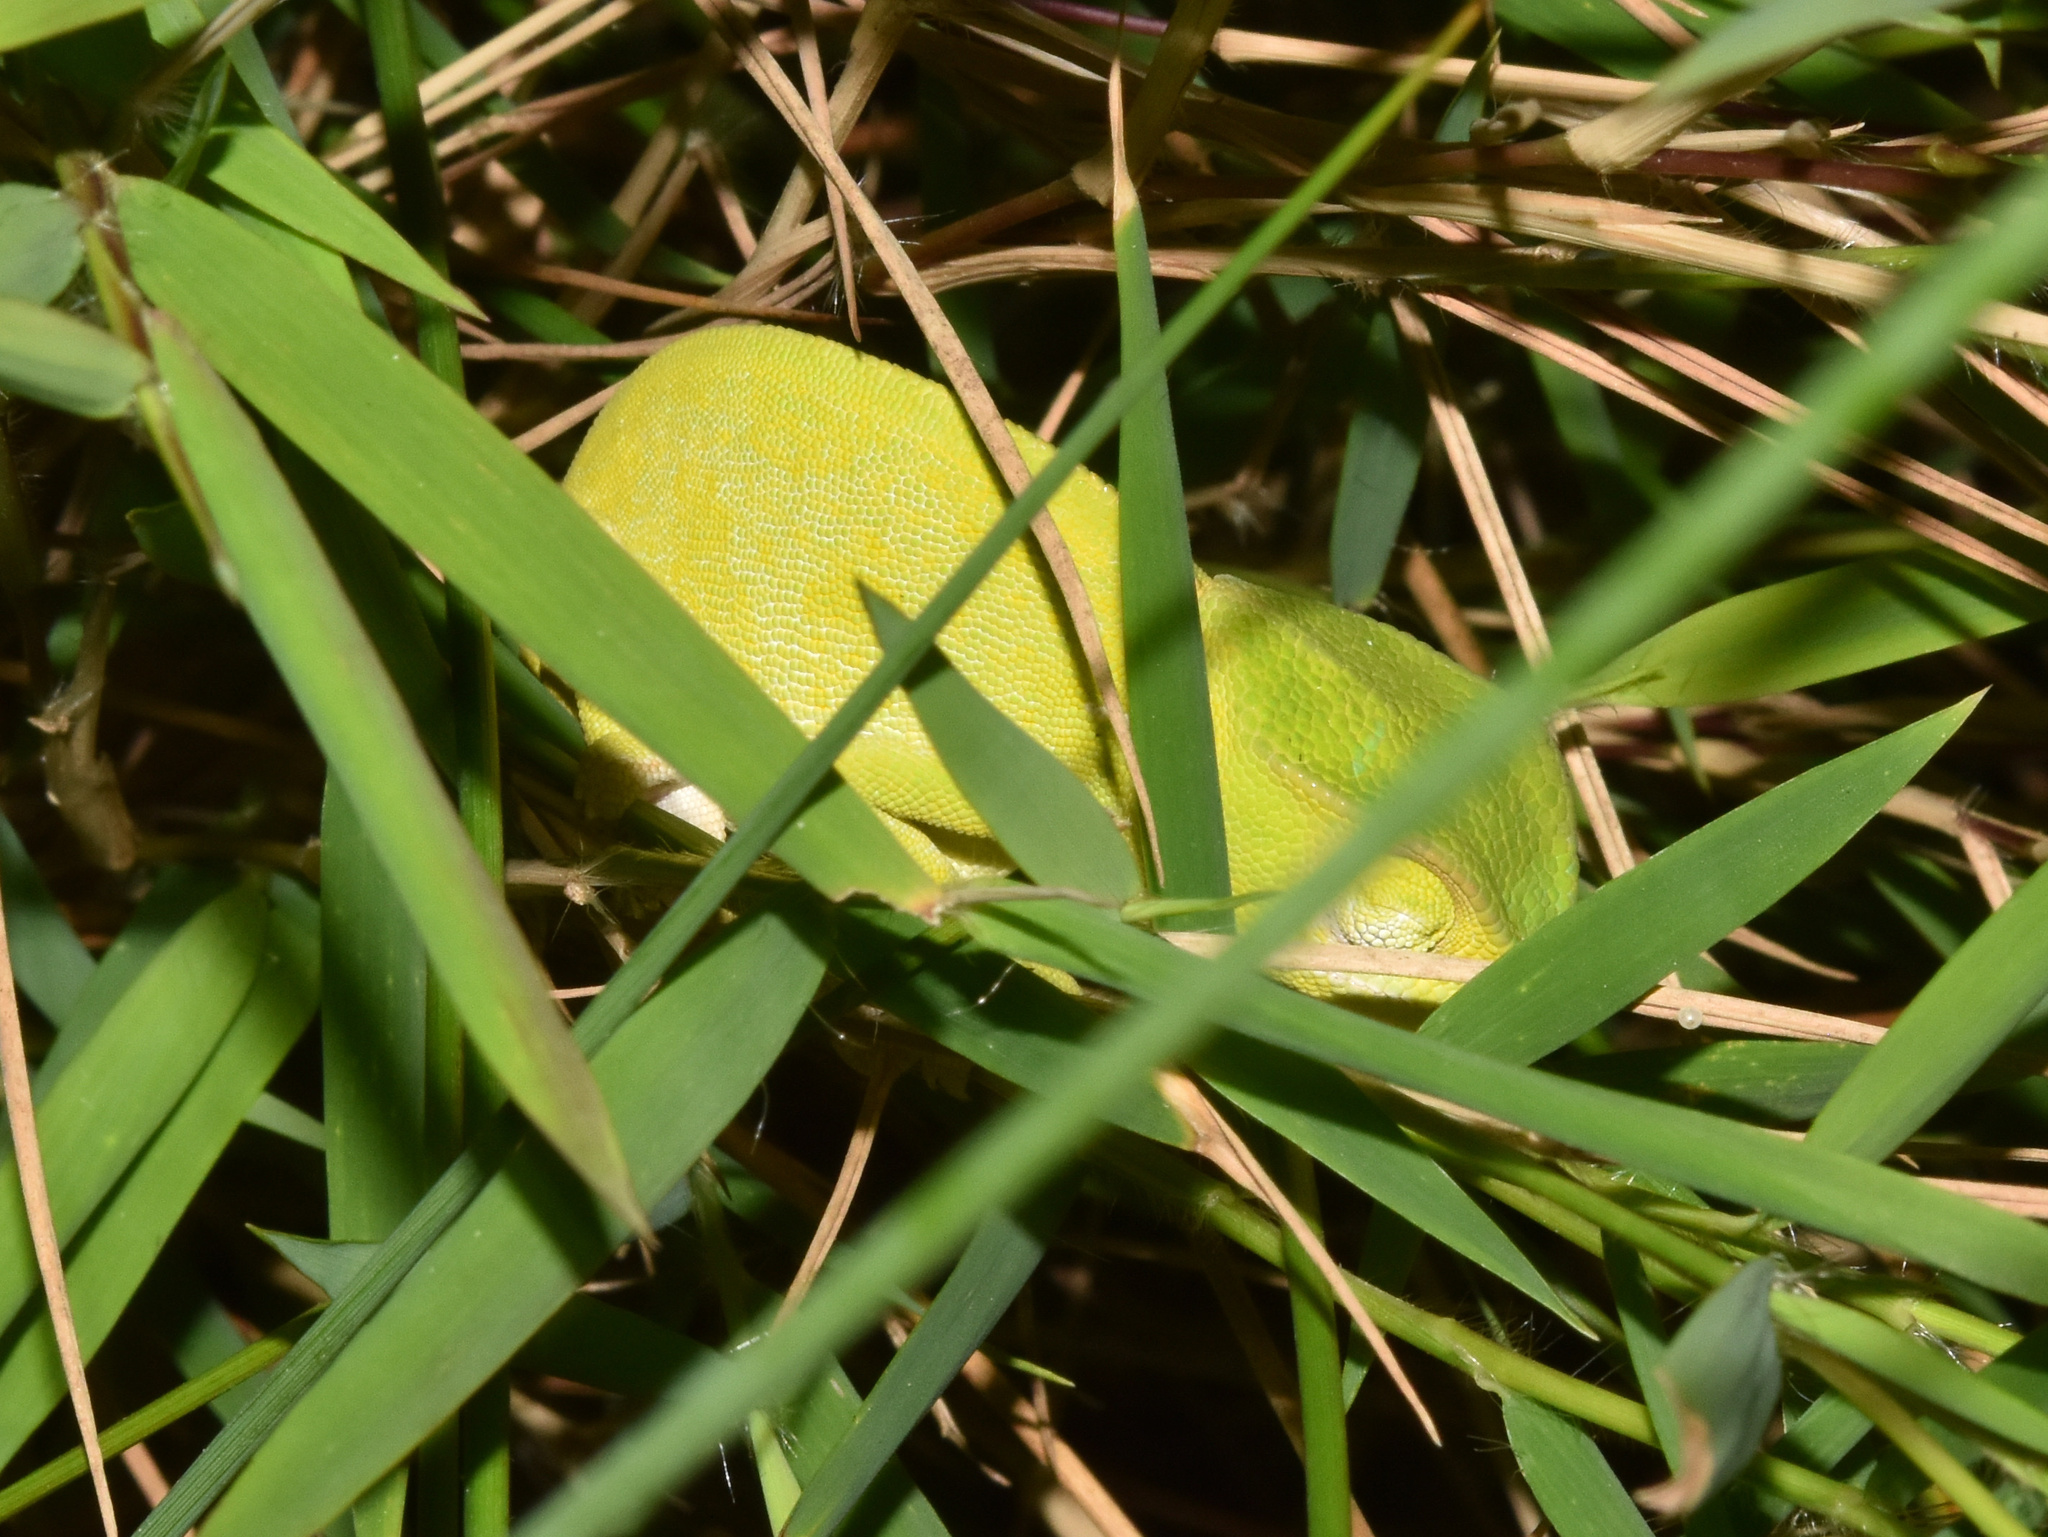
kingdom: Animalia
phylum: Chordata
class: Squamata
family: Chamaeleonidae
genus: Chamaeleo
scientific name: Chamaeleo dilepis
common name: Flapneck chameleon
